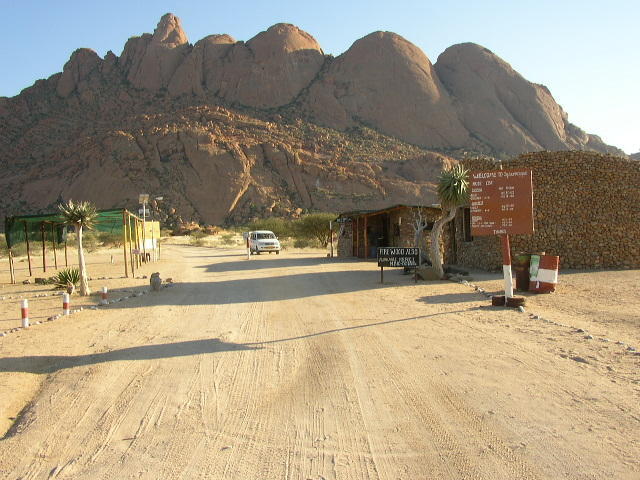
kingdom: Plantae
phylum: Tracheophyta
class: Liliopsida
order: Asparagales
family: Asphodelaceae
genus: Aloidendron
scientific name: Aloidendron dichotomum
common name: Quiver tree
